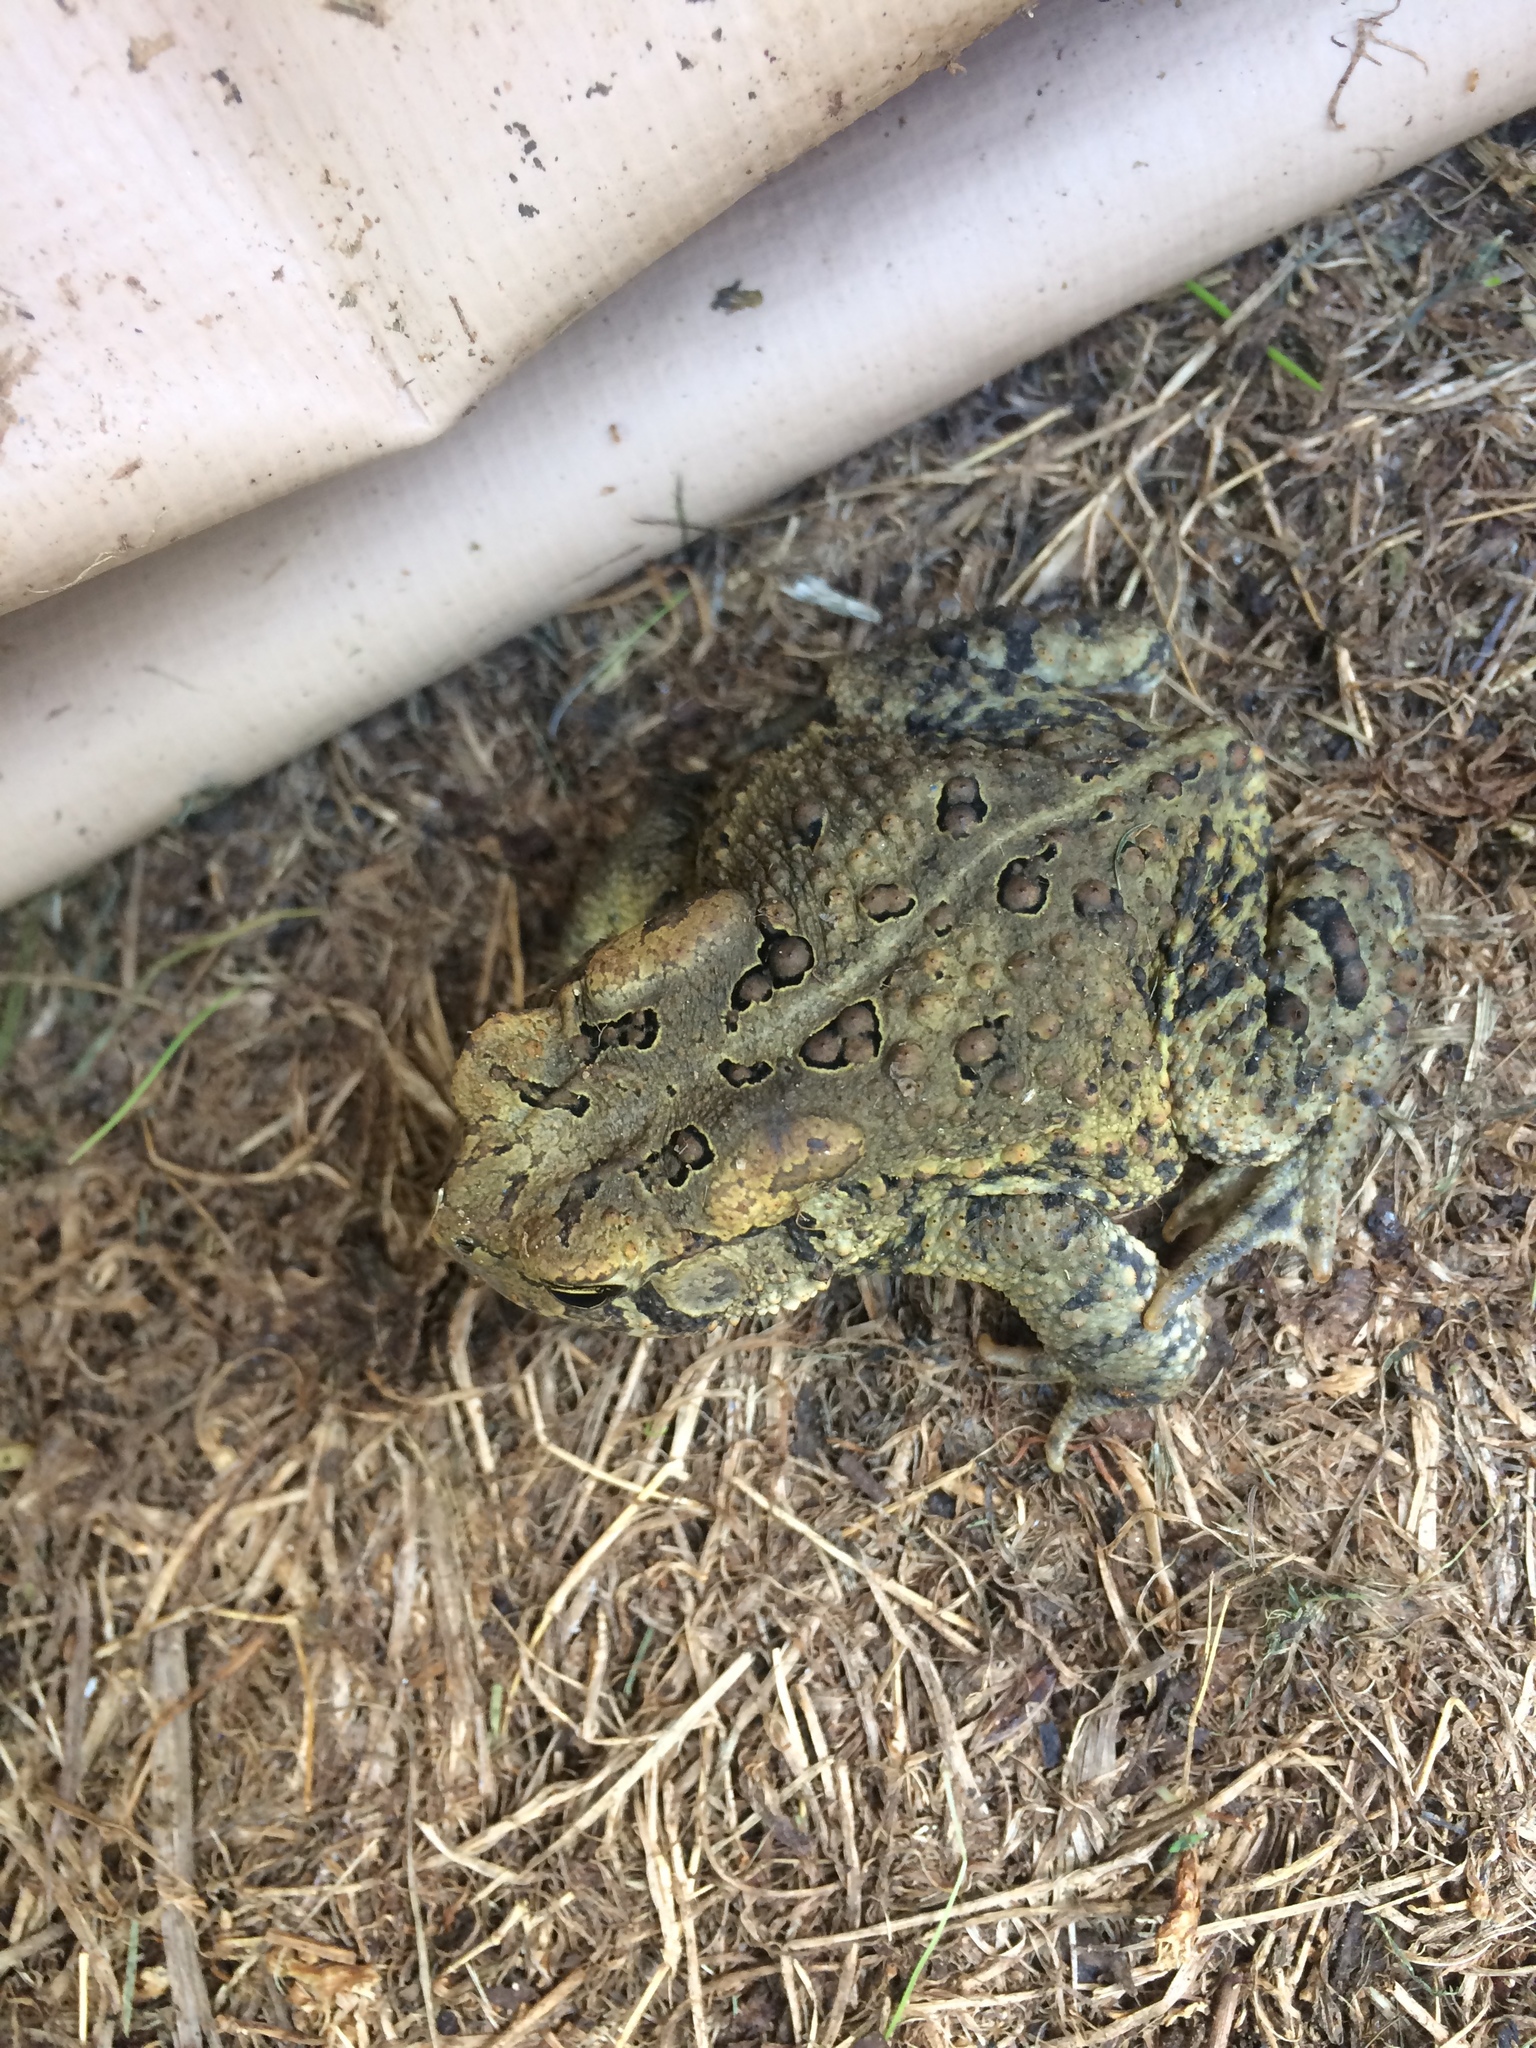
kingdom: Animalia
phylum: Chordata
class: Amphibia
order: Anura
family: Bufonidae
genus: Anaxyrus
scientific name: Anaxyrus americanus
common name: American toad
